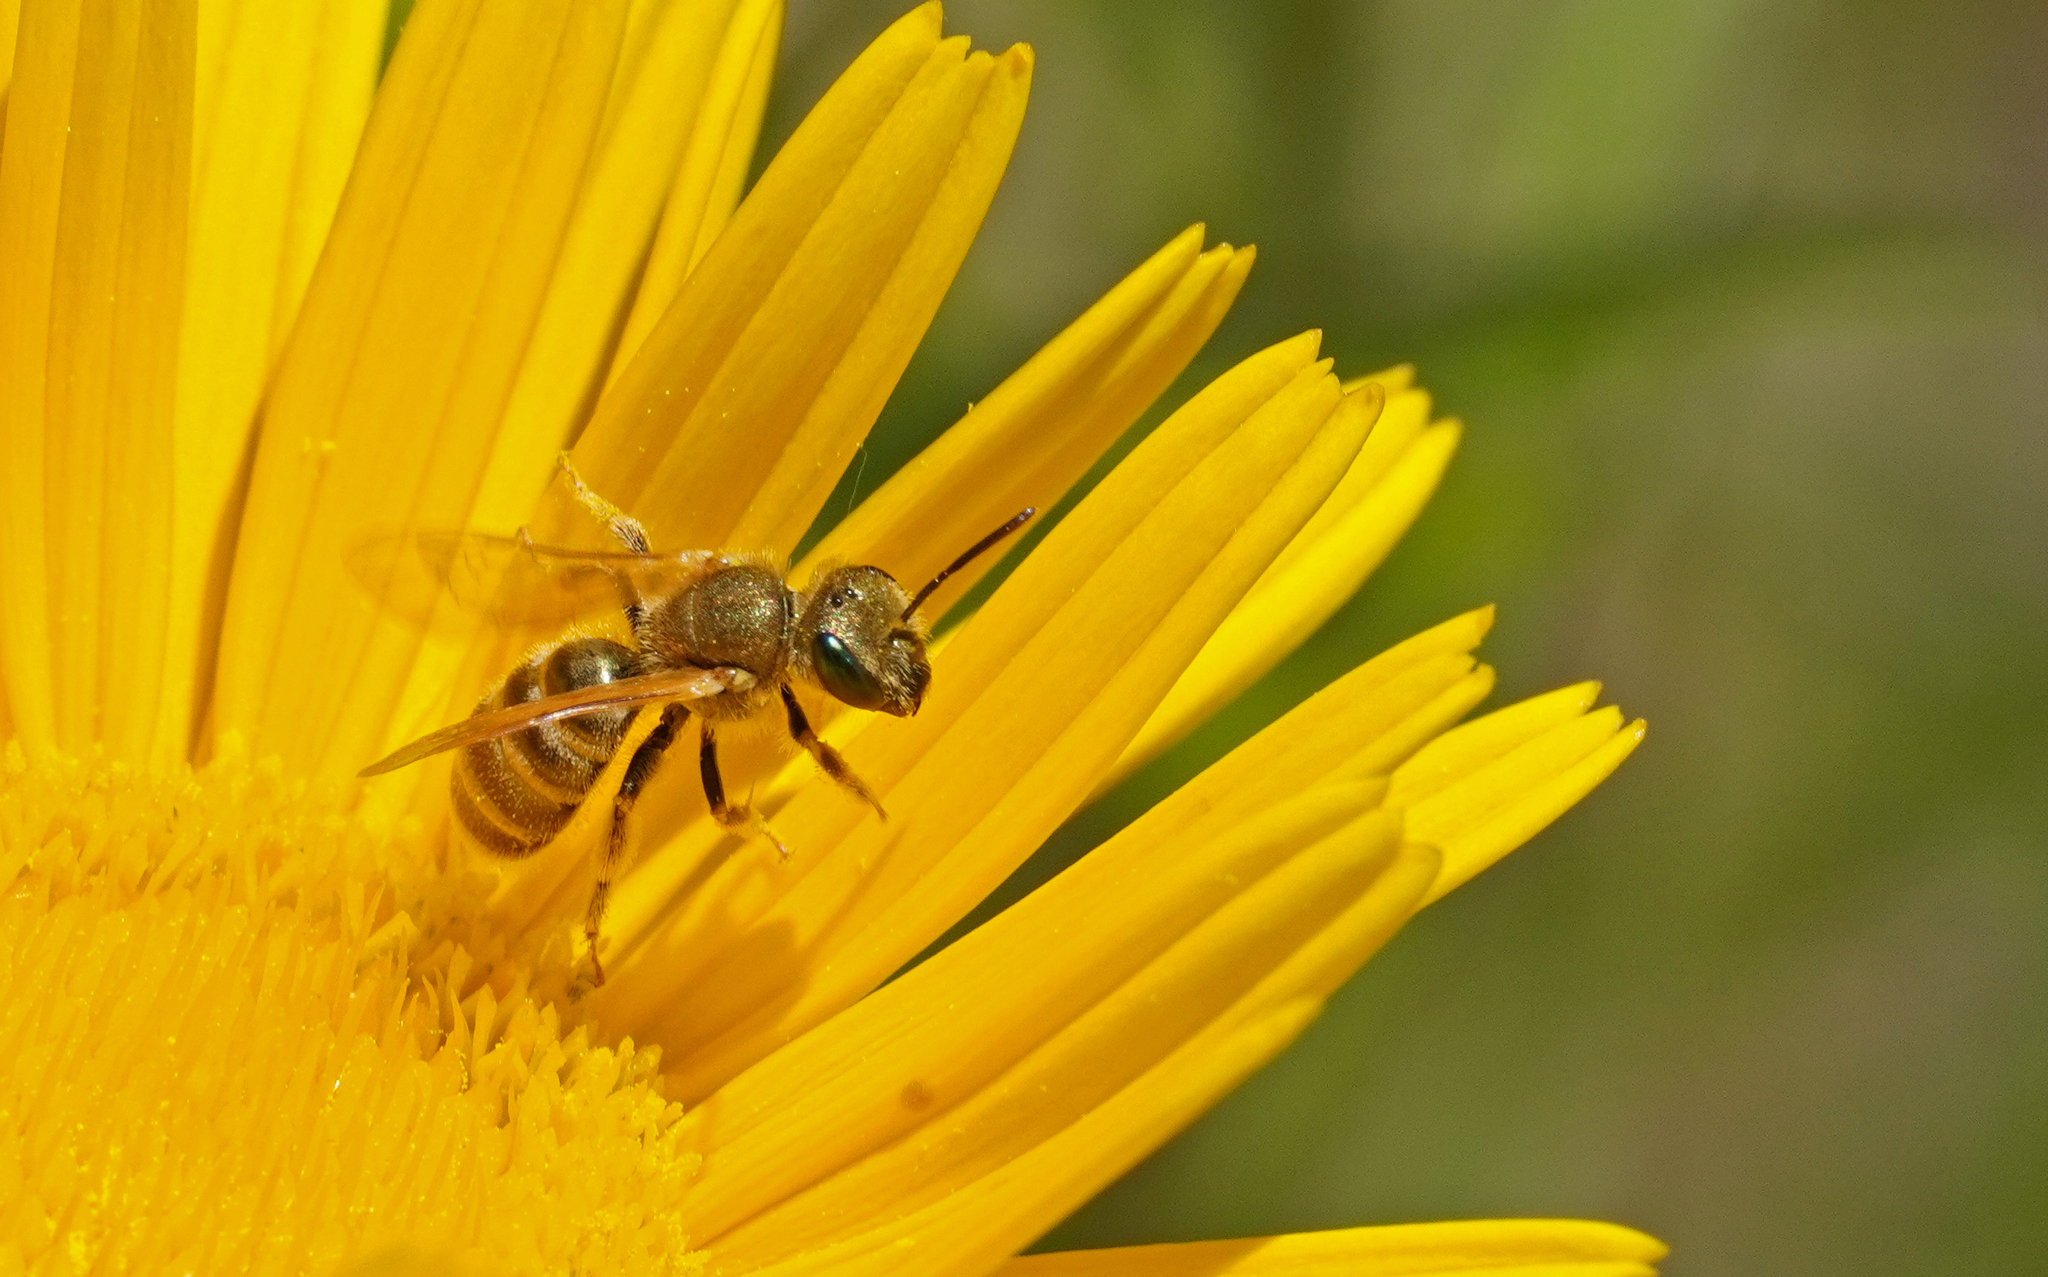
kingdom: Animalia
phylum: Arthropoda
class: Insecta
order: Hymenoptera
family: Halictidae
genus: Halictus
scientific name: Halictus subauratus
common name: Golden furrow bee
